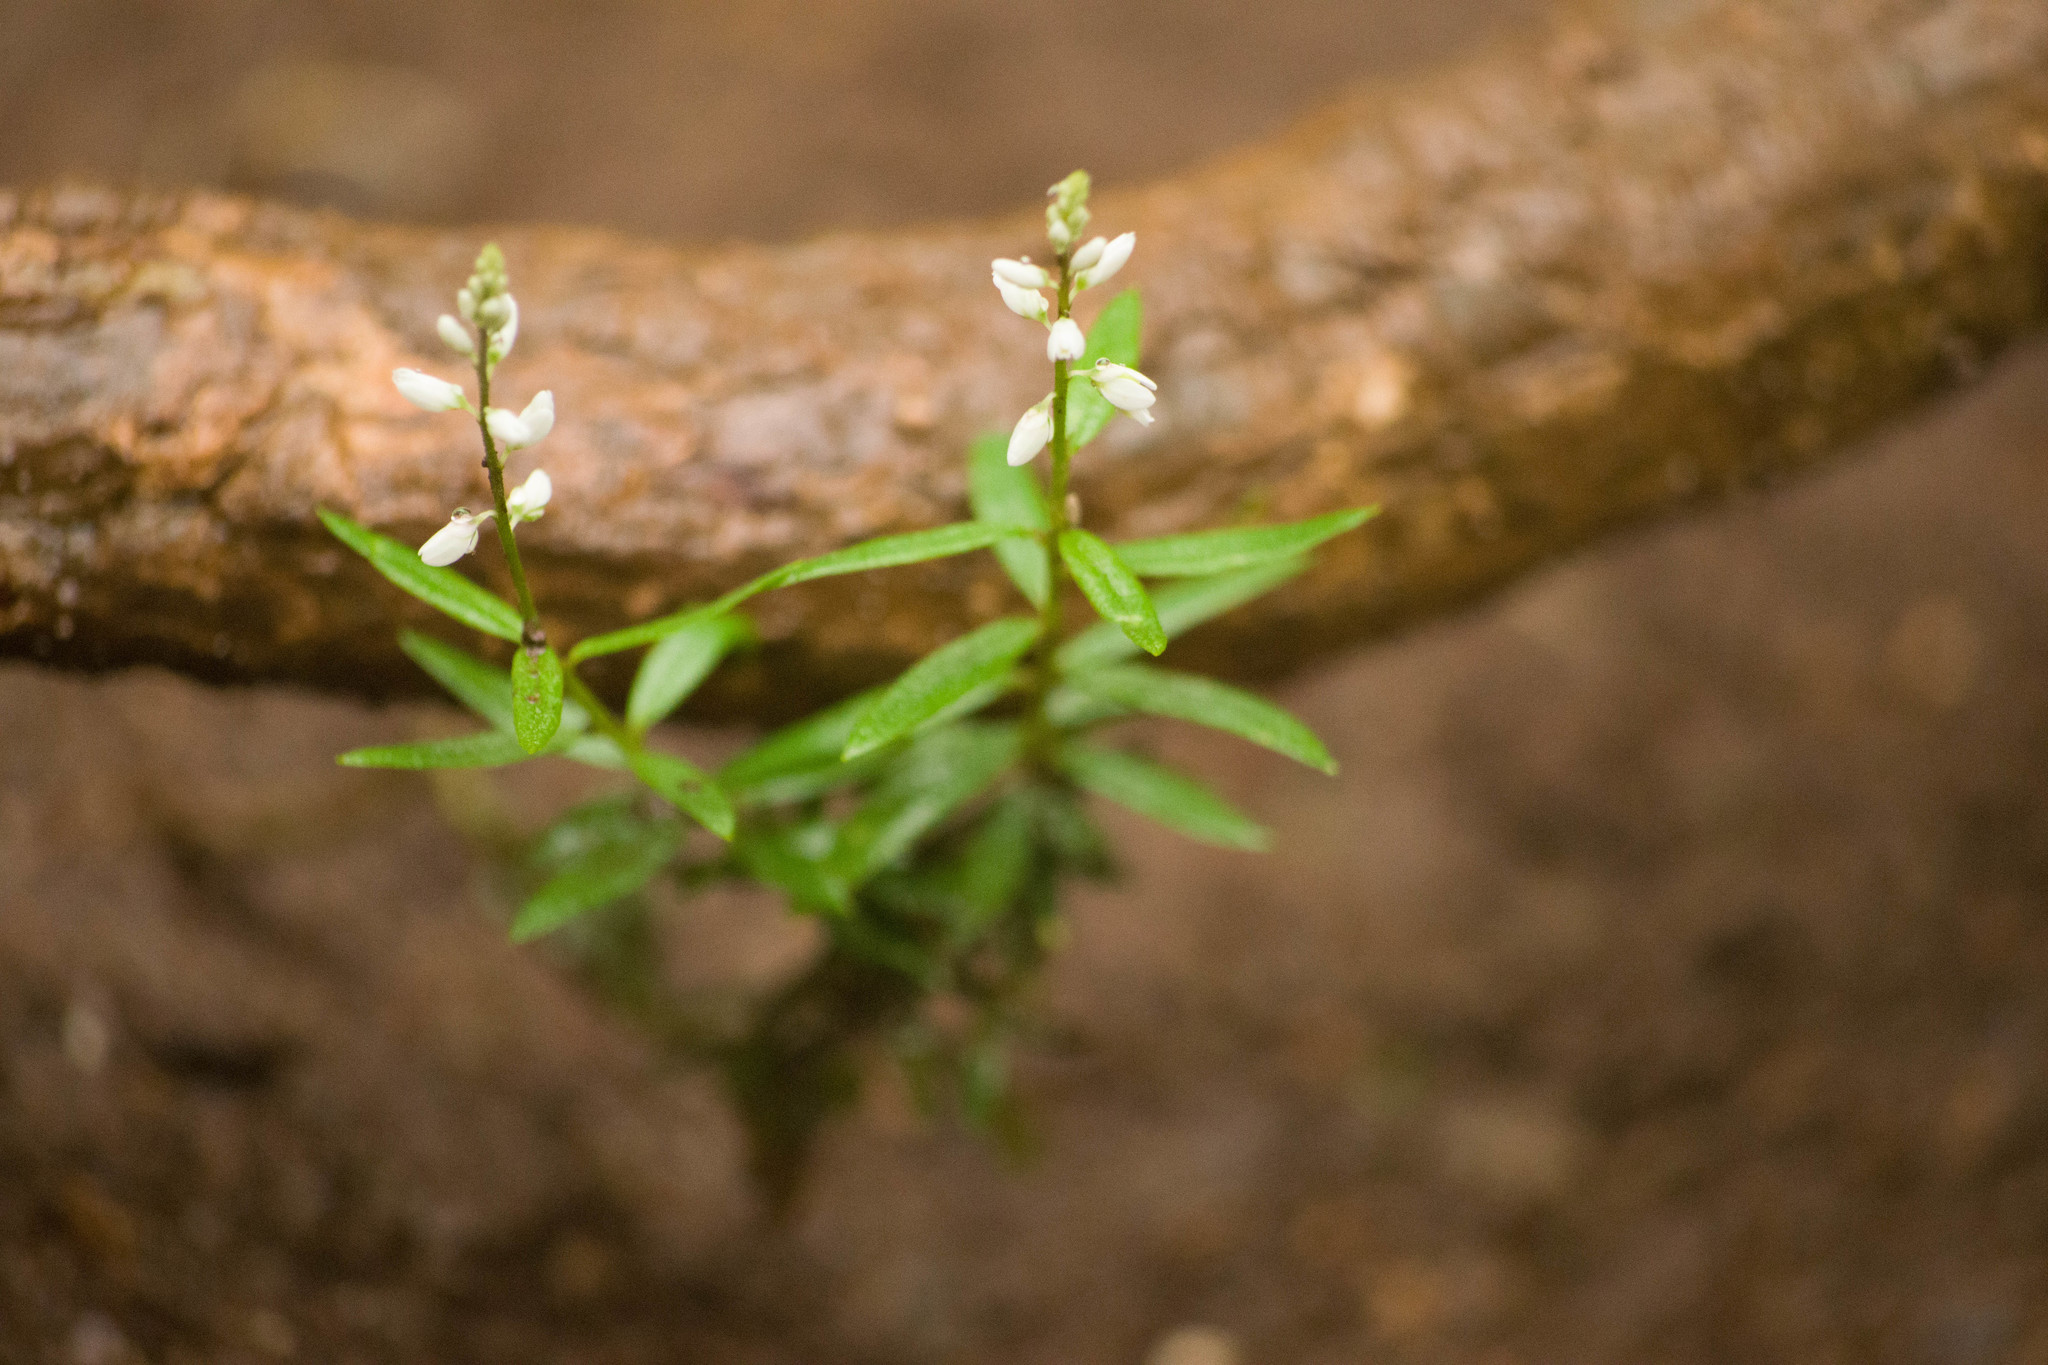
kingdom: Plantae
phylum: Tracheophyta
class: Magnoliopsida
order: Fabales
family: Polygalaceae
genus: Polygala
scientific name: Polygala paniculata
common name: Orosne
